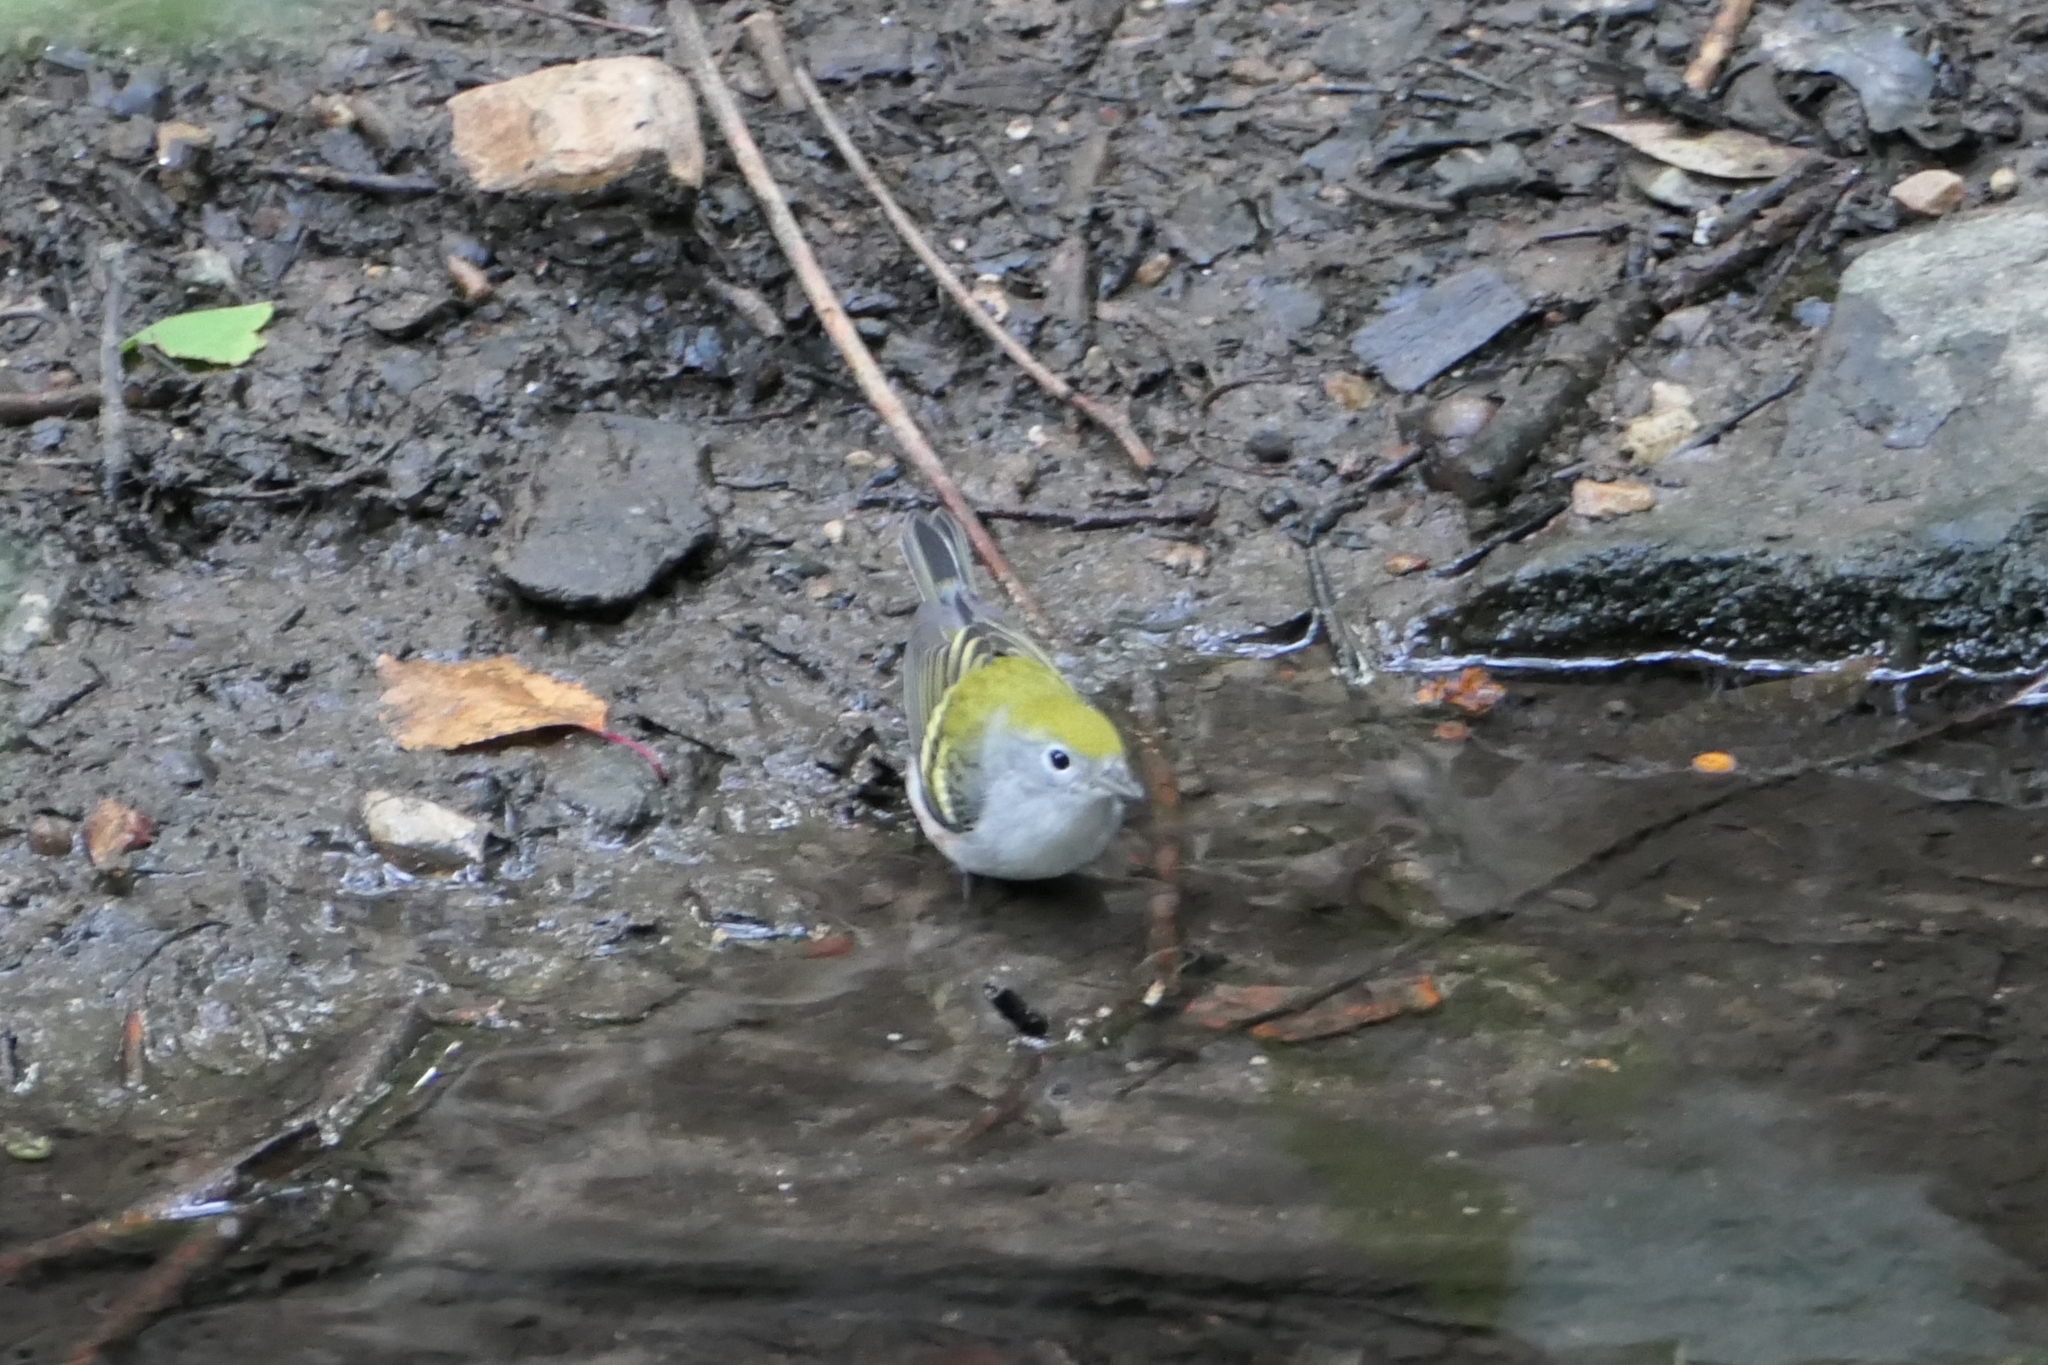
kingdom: Animalia
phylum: Chordata
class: Aves
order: Passeriformes
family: Parulidae
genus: Setophaga
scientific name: Setophaga pensylvanica
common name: Chestnut-sided warbler
